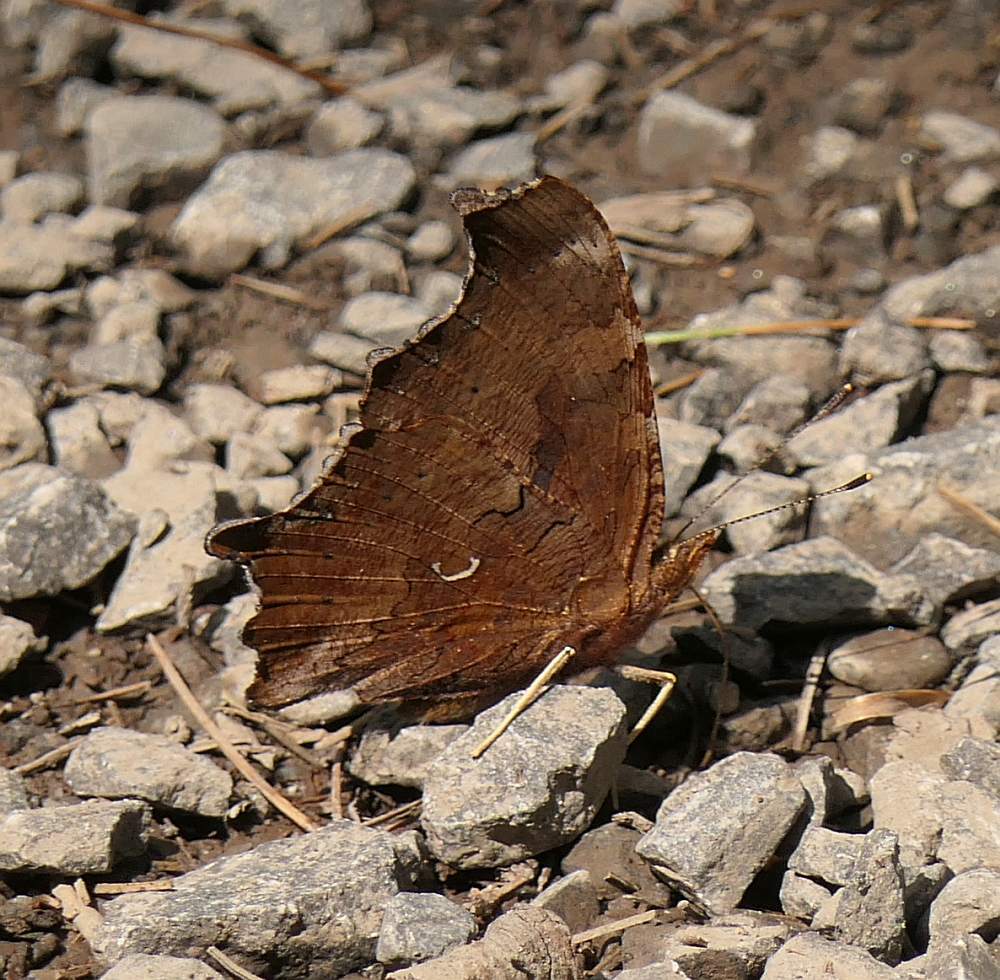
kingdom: Animalia
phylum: Arthropoda
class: Insecta
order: Lepidoptera
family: Nymphalidae
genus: Polygonia
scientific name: Polygonia comma
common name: Eastern comma
